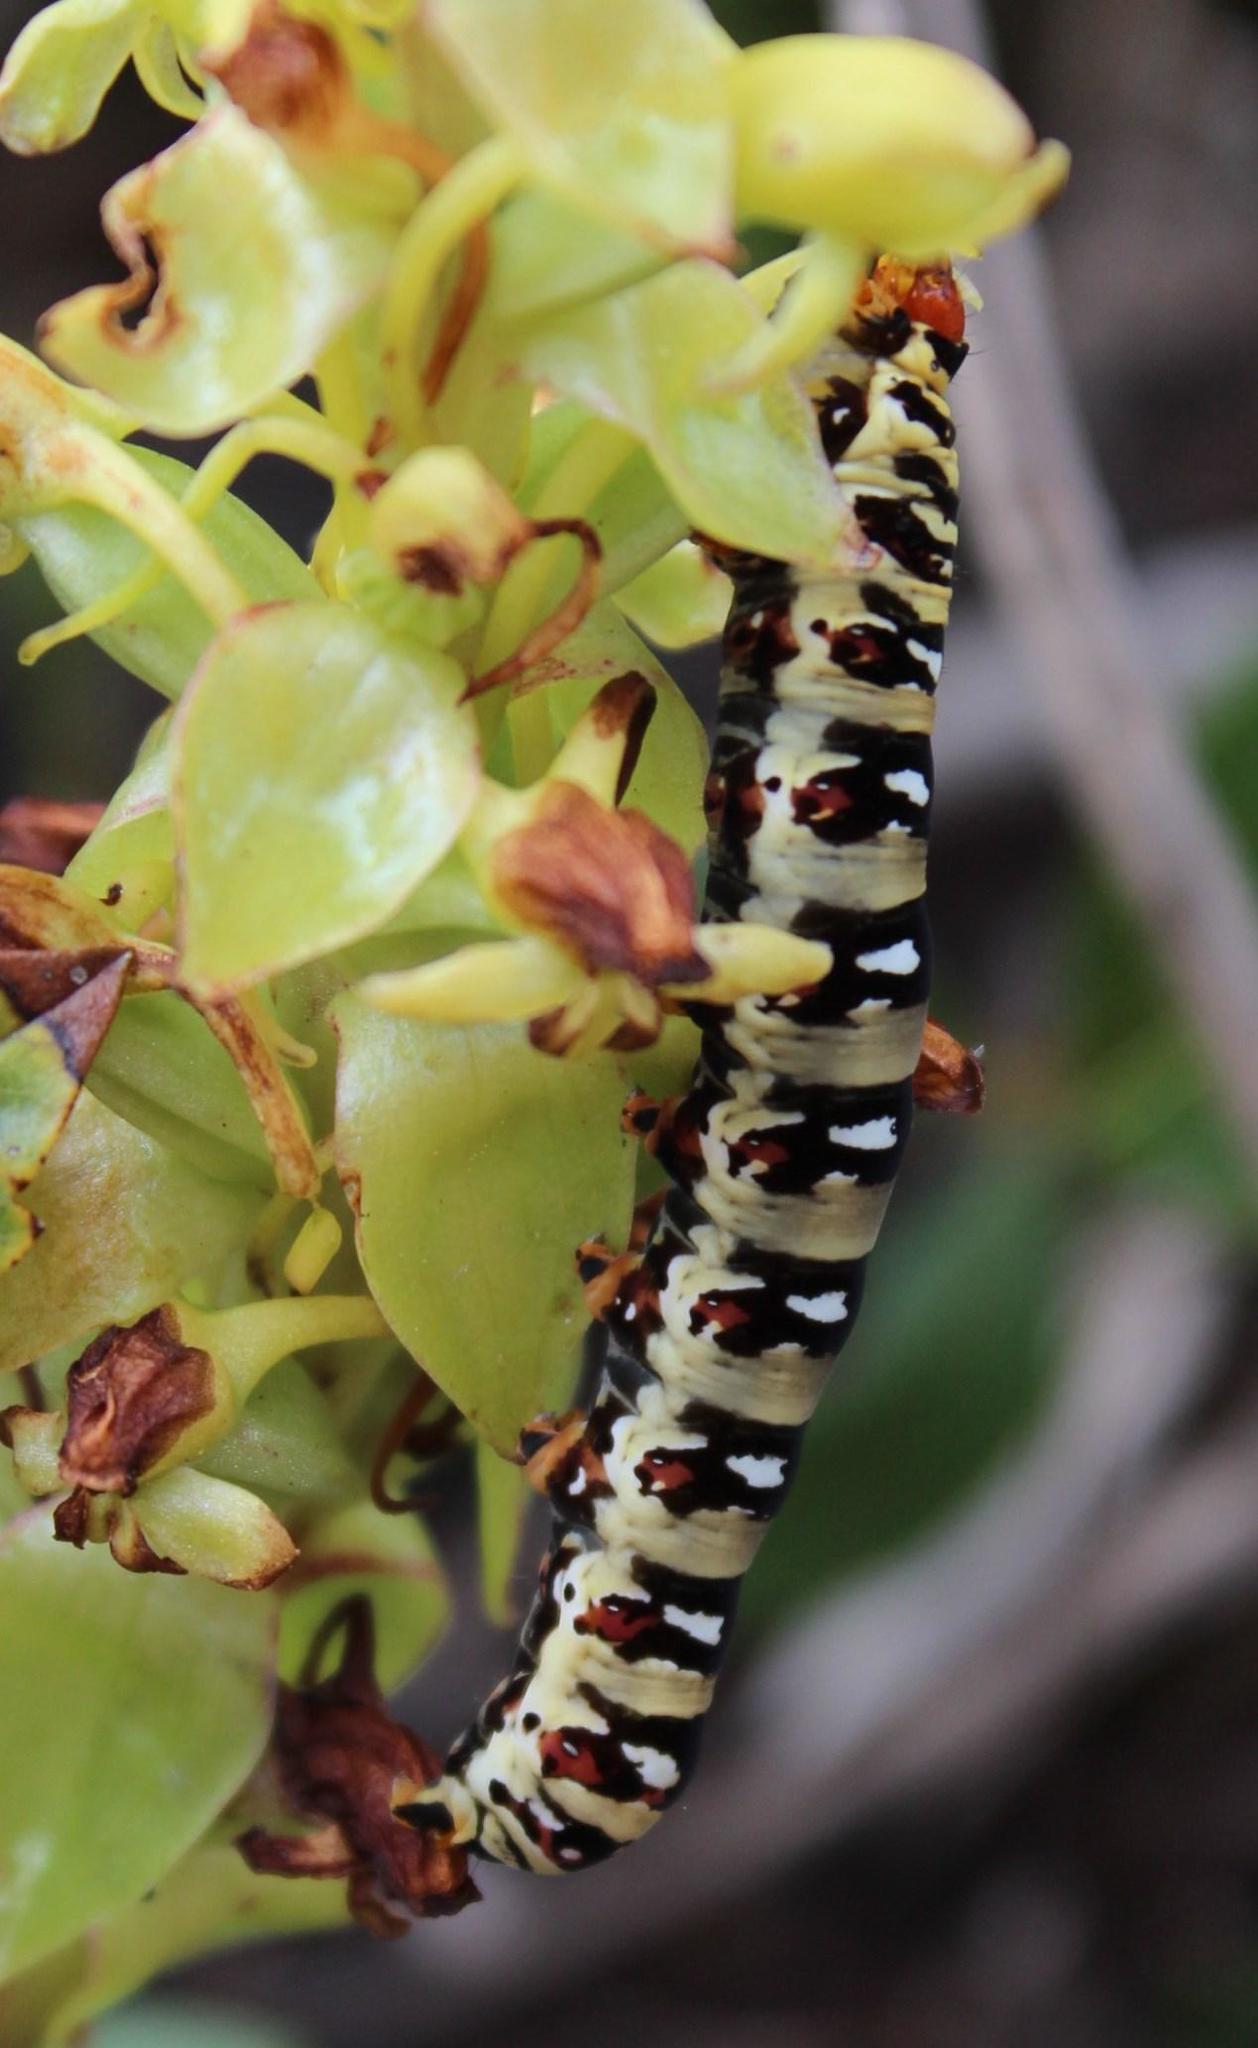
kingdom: Animalia
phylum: Arthropoda
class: Insecta
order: Lepidoptera
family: Noctuidae
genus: Klugeana
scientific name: Klugeana philoxalis
